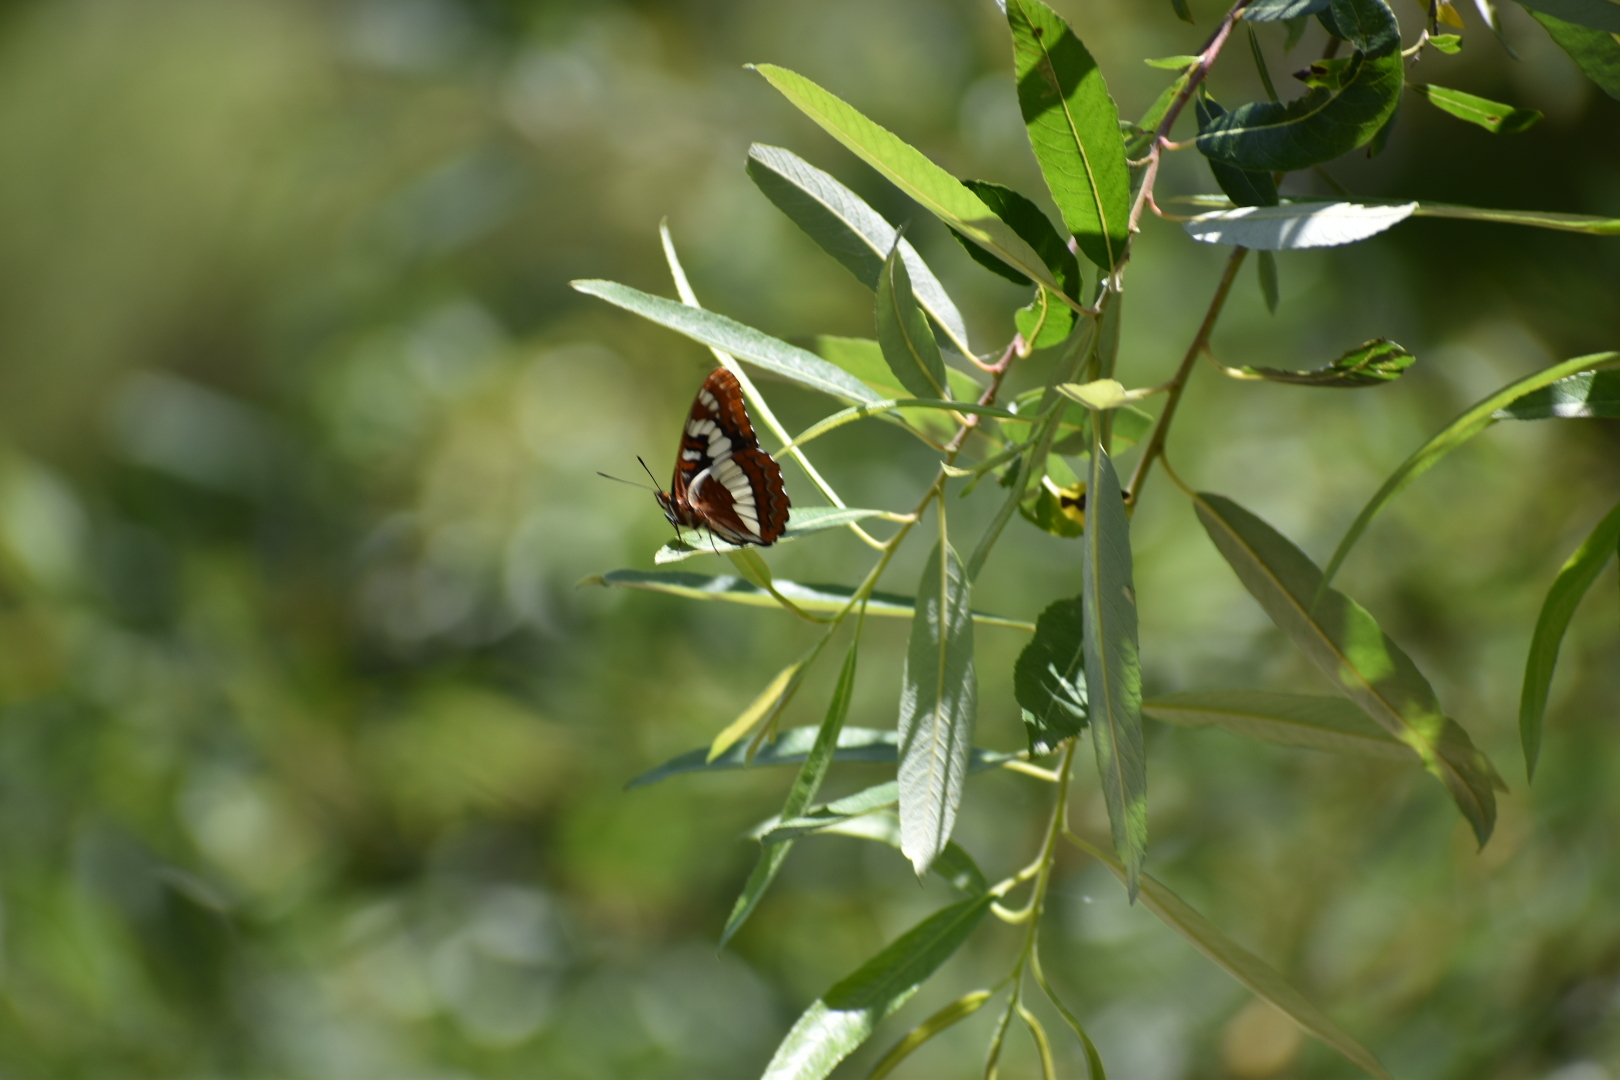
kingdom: Animalia
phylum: Arthropoda
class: Insecta
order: Lepidoptera
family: Nymphalidae
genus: Limenitis
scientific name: Limenitis lorquini
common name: Lorquin's admiral
